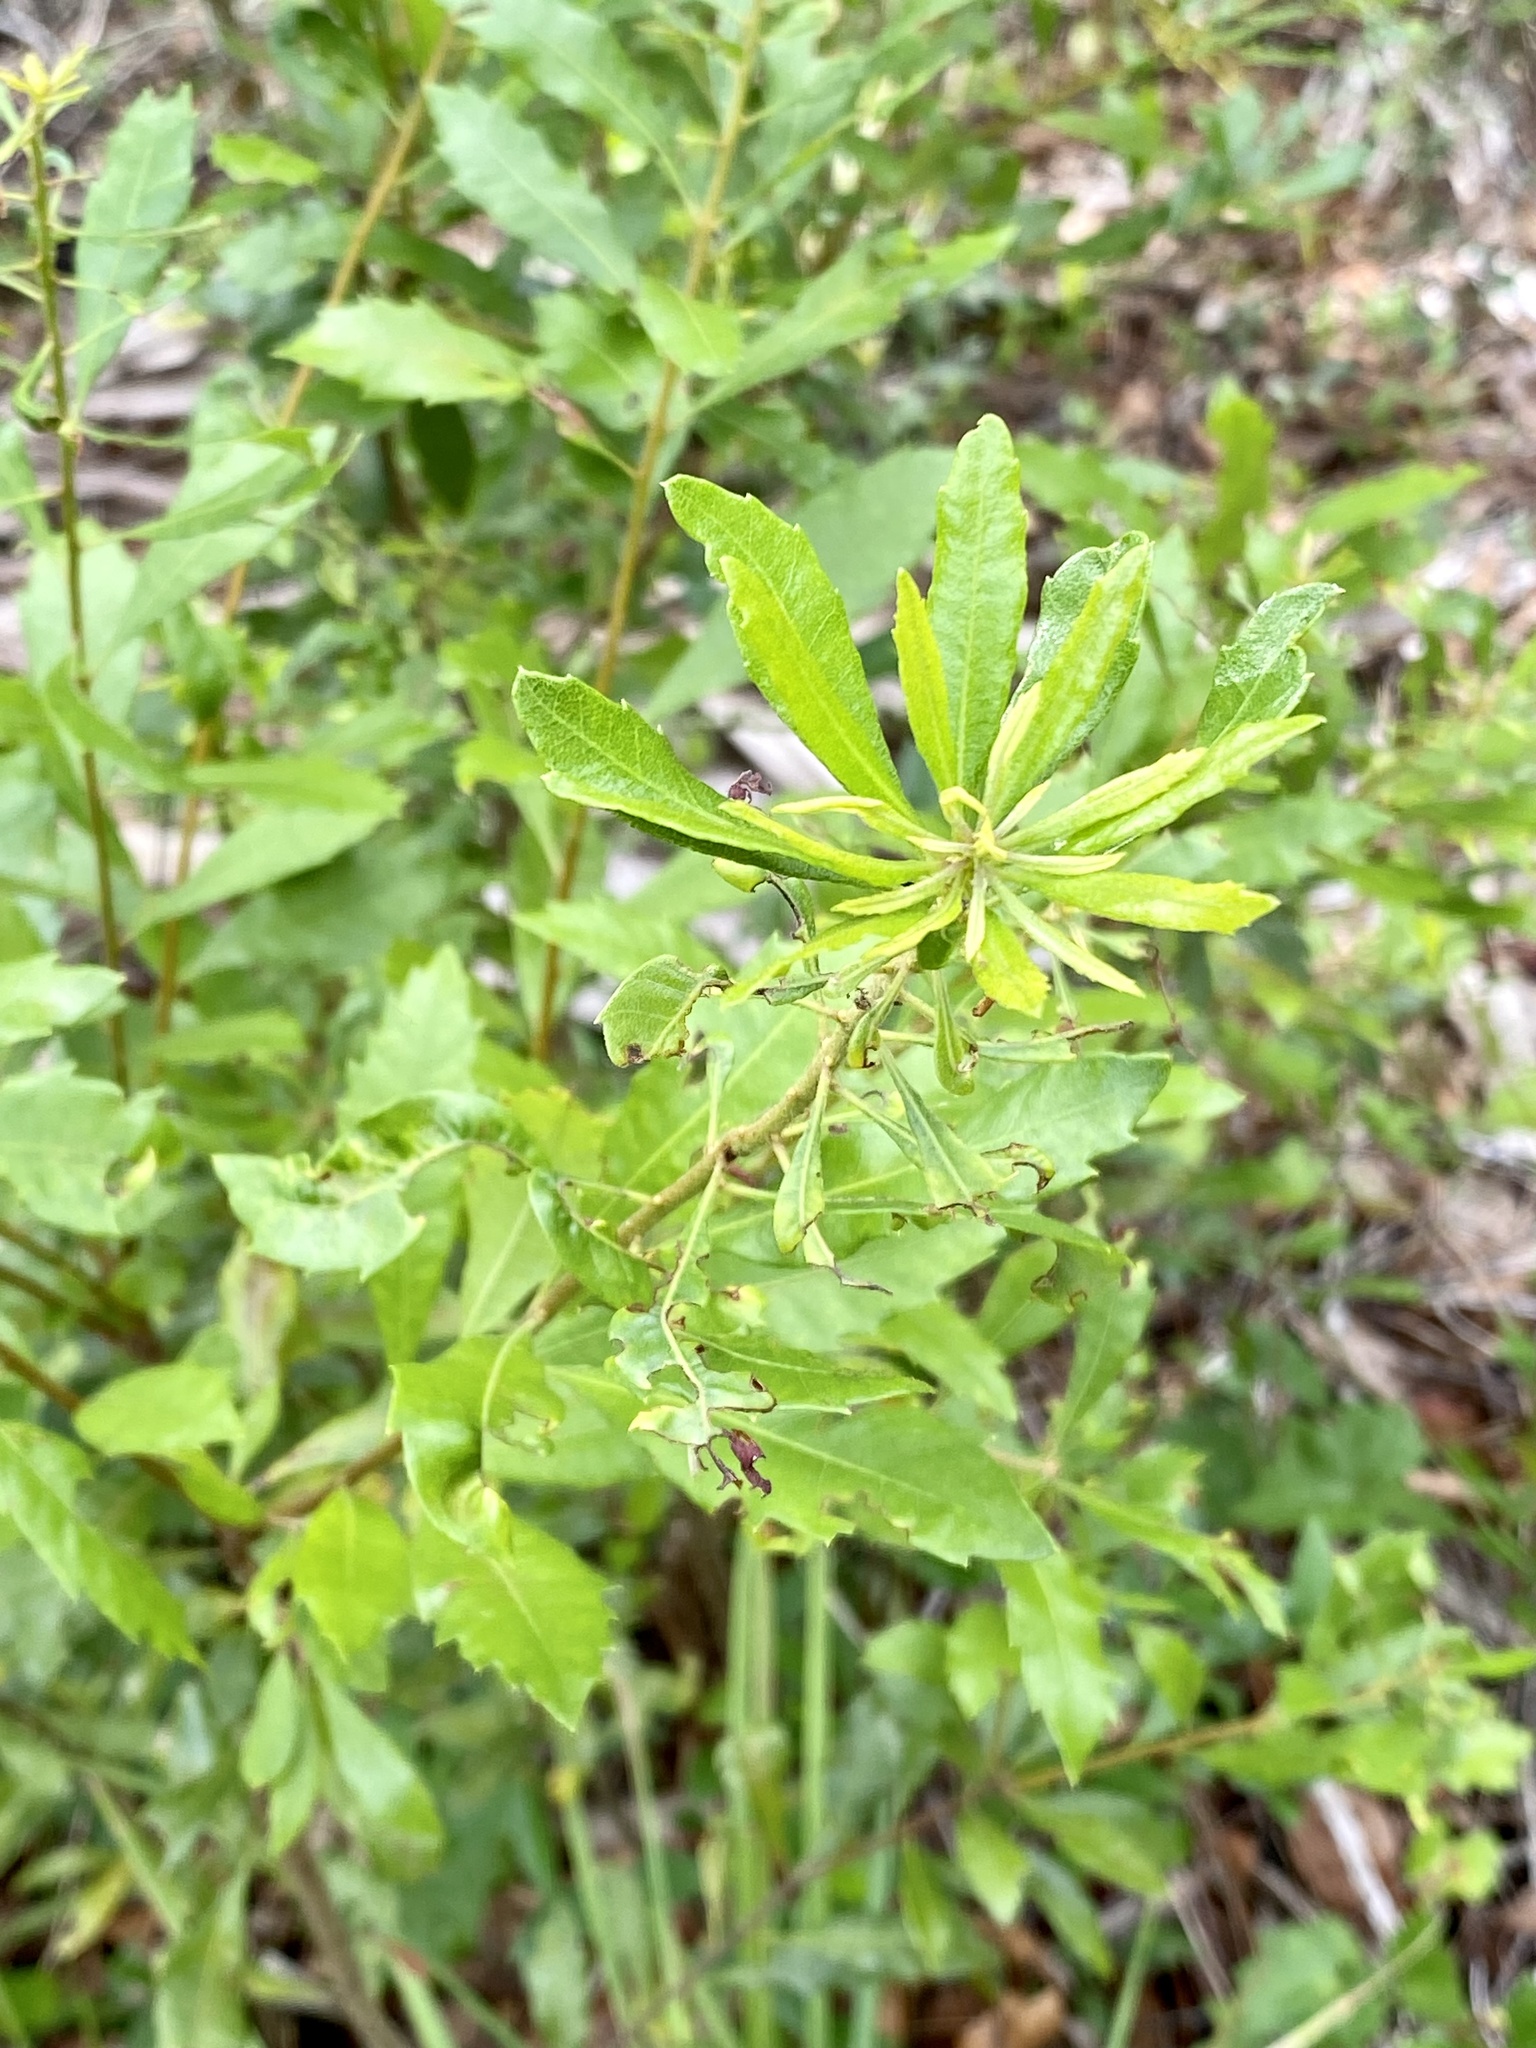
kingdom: Plantae
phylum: Tracheophyta
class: Magnoliopsida
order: Fagales
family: Myricaceae
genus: Morella
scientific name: Morella cerifera
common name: Wax myrtle
